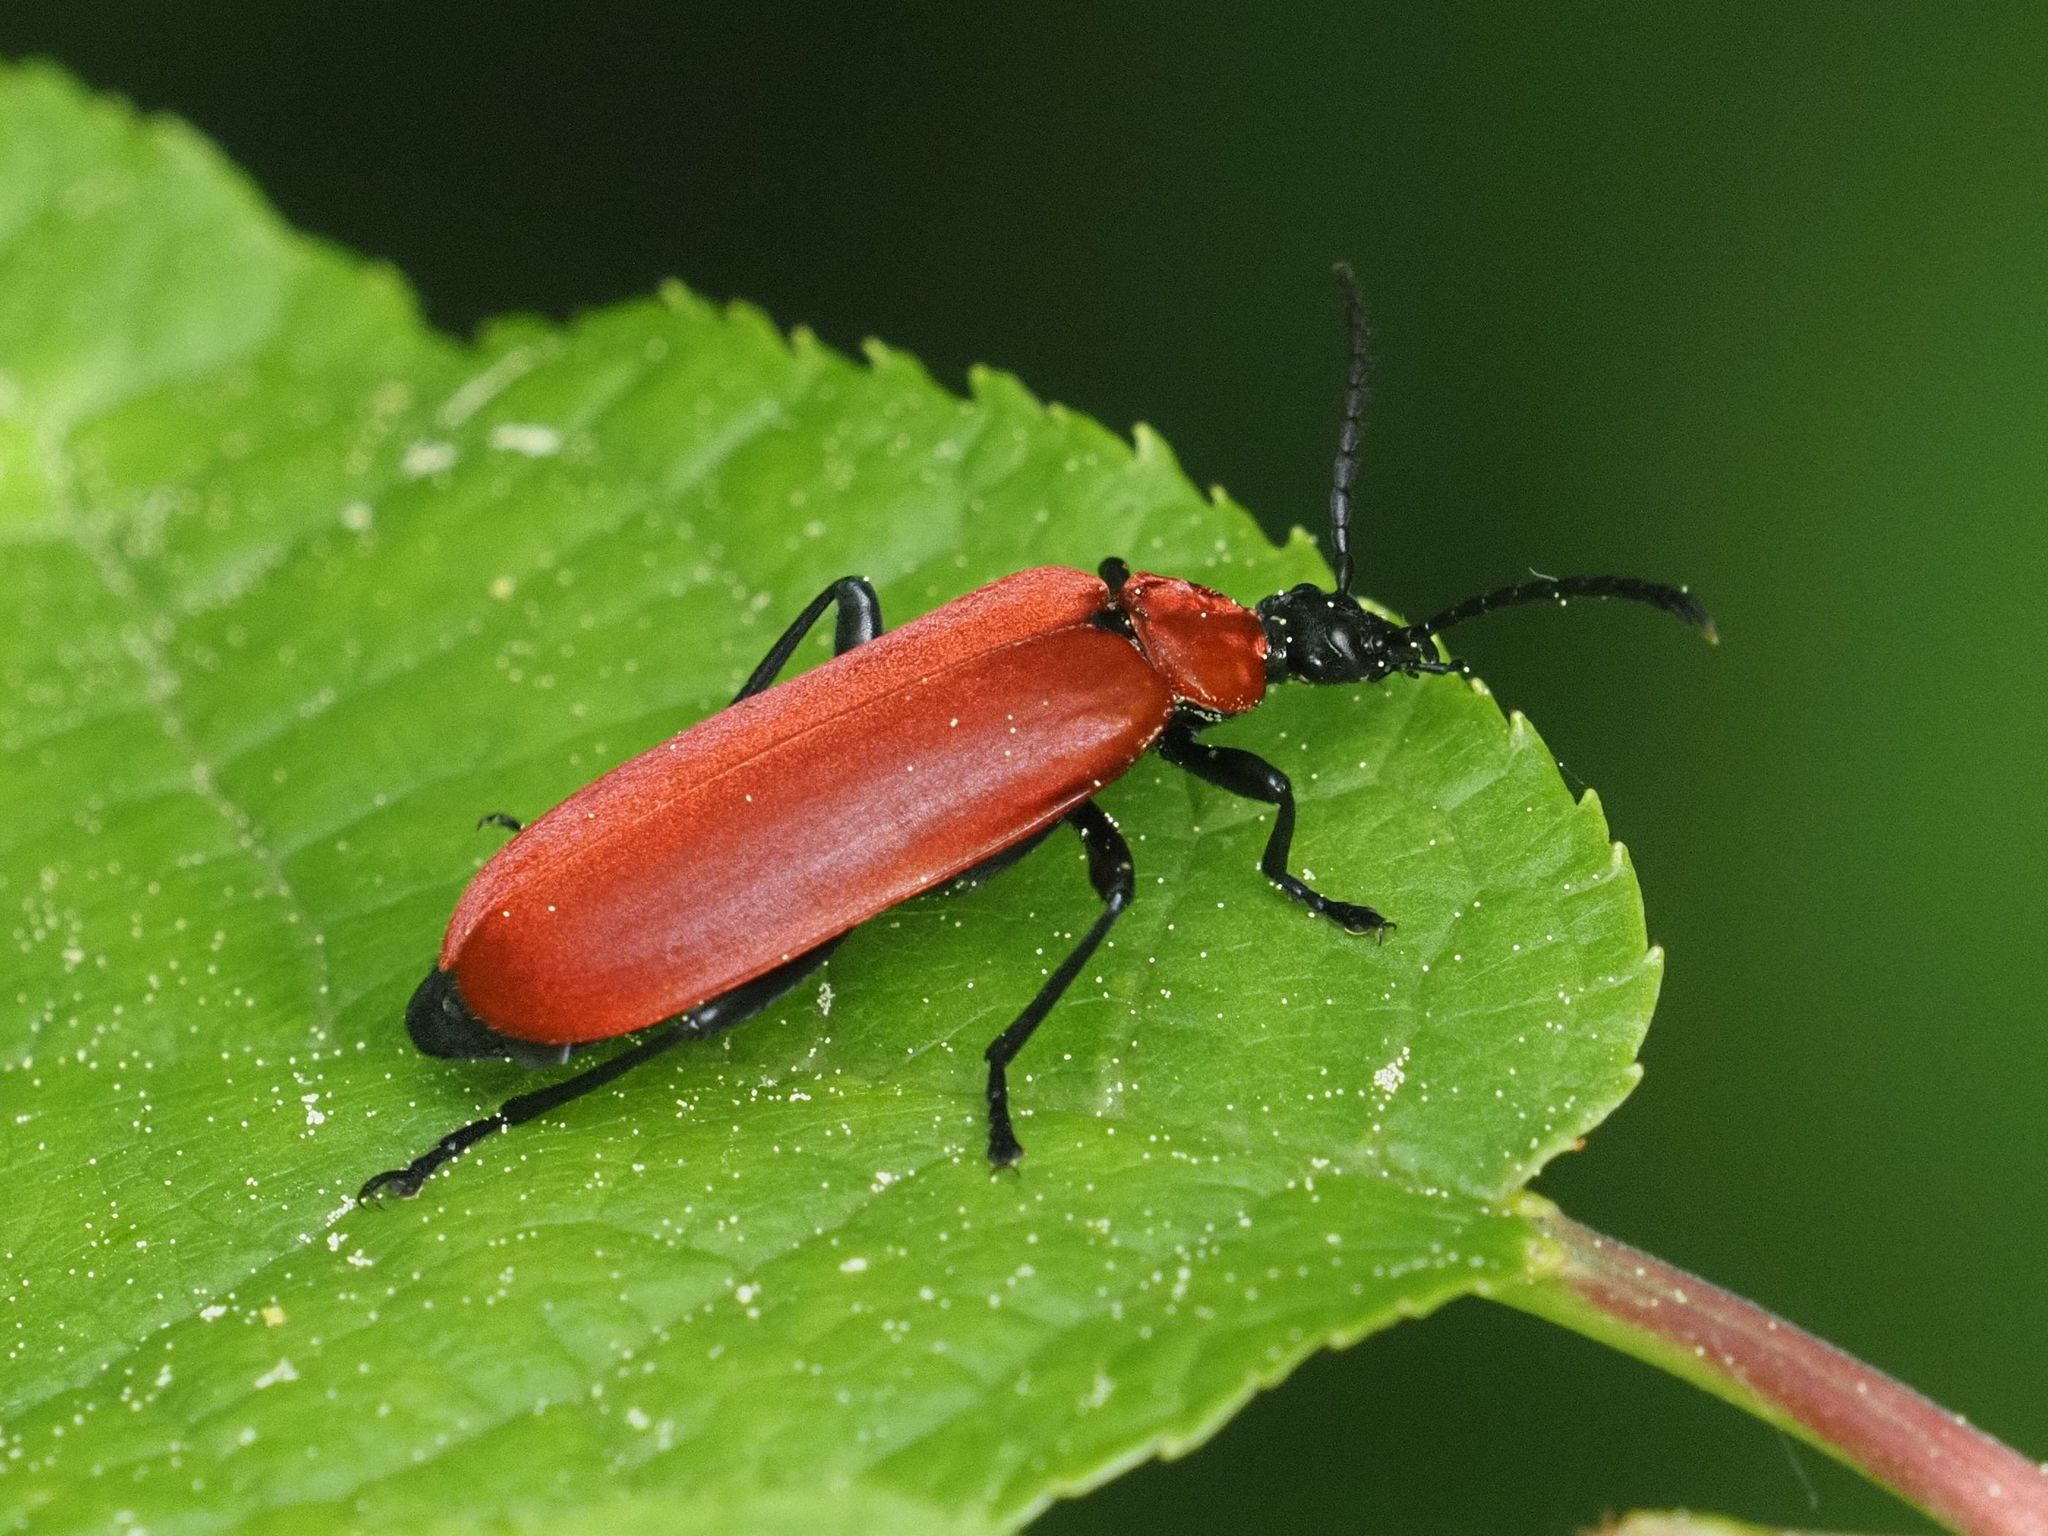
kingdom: Animalia
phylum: Arthropoda
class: Insecta
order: Coleoptera
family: Pyrochroidae
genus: Pyrochroa
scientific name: Pyrochroa coccinea
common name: Black-headed cardinal beetle
